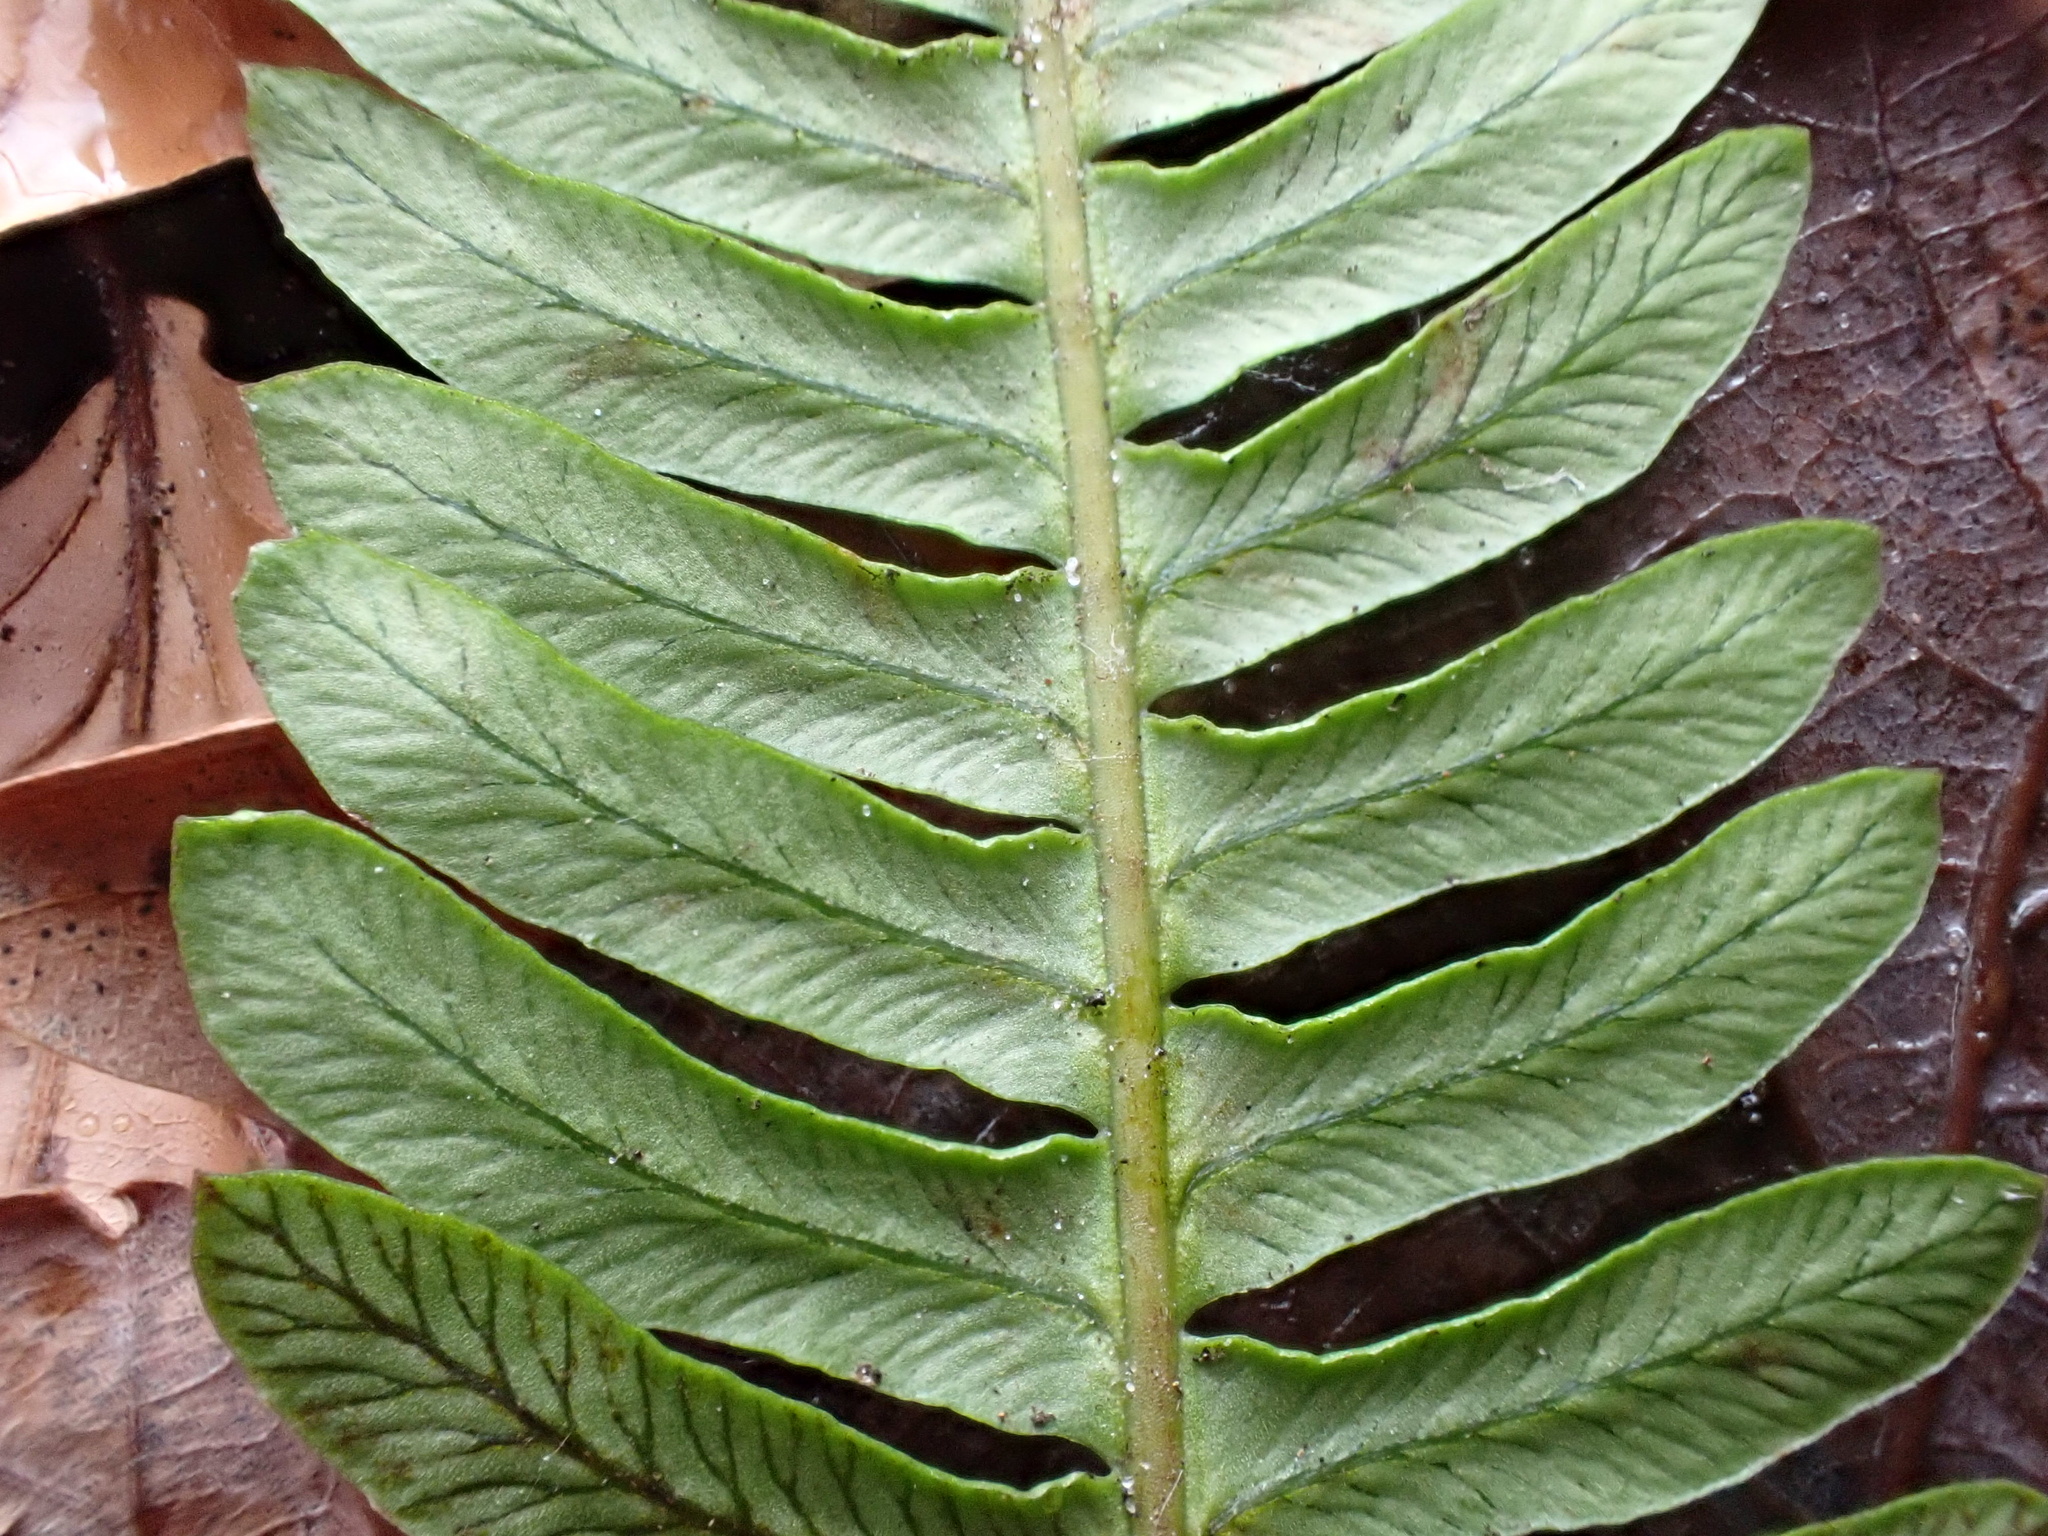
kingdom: Plantae
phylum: Tracheophyta
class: Polypodiopsida
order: Polypodiales
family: Blechnaceae
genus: Struthiopteris
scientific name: Struthiopteris spicant
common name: Deer fern
